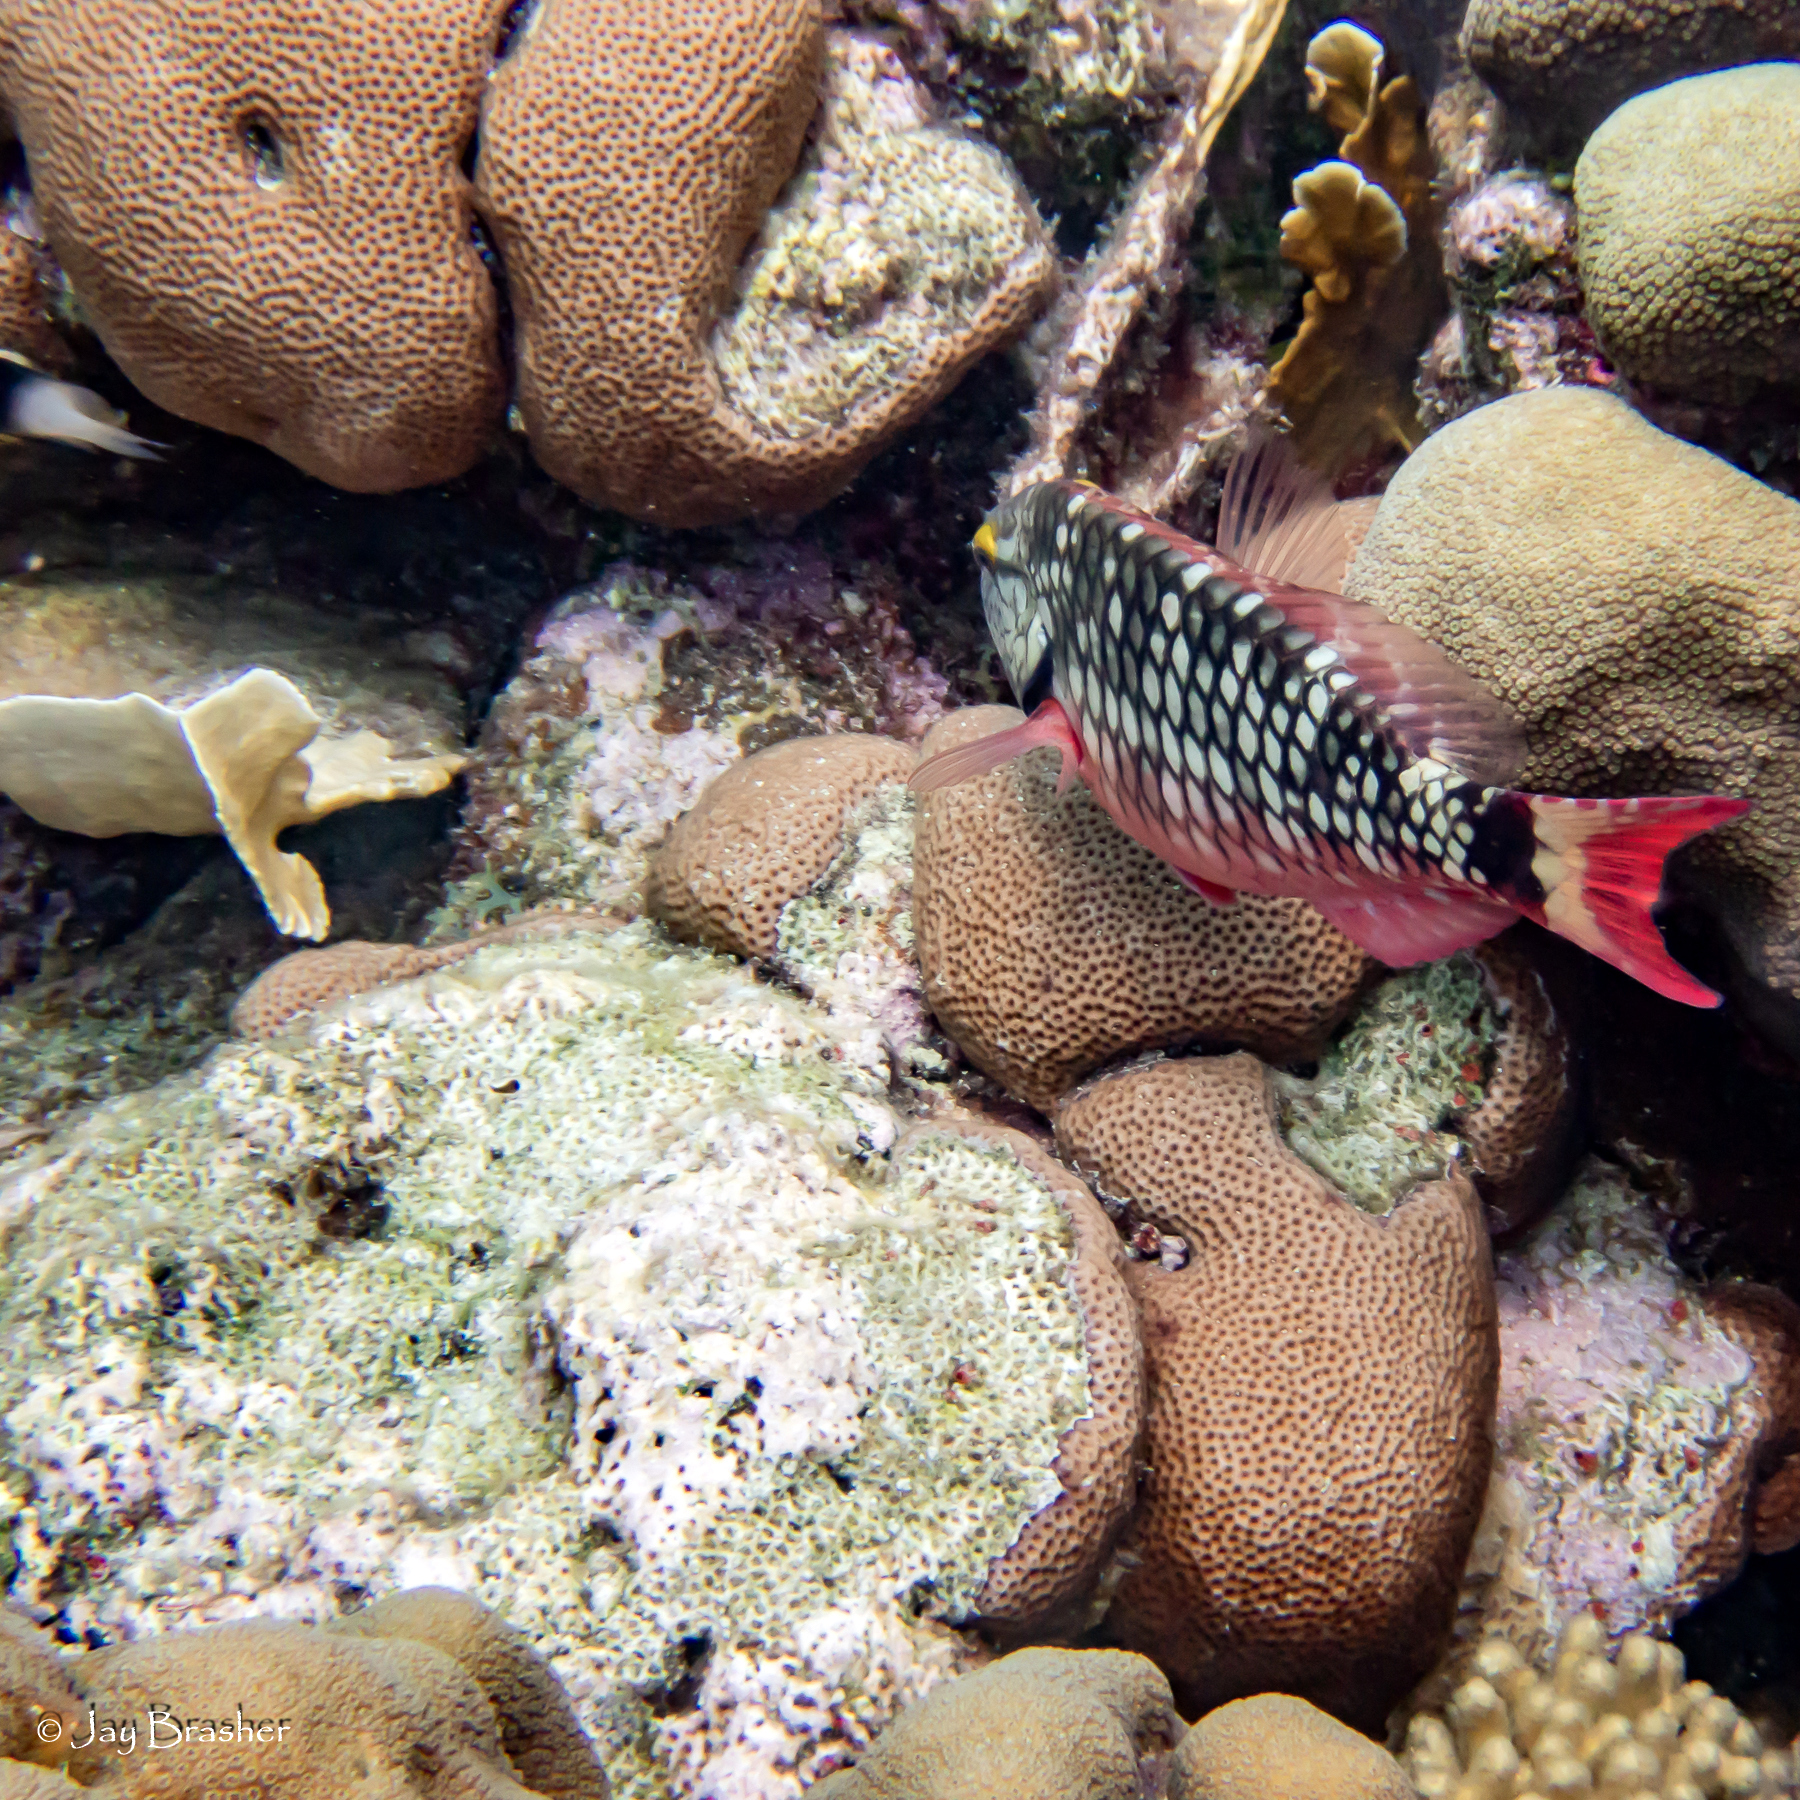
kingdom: Animalia
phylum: Cnidaria
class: Anthozoa
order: Scleractinia
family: Rhizangiidae
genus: Siderastrea
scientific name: Siderastrea siderea
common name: Massive starlet coral
